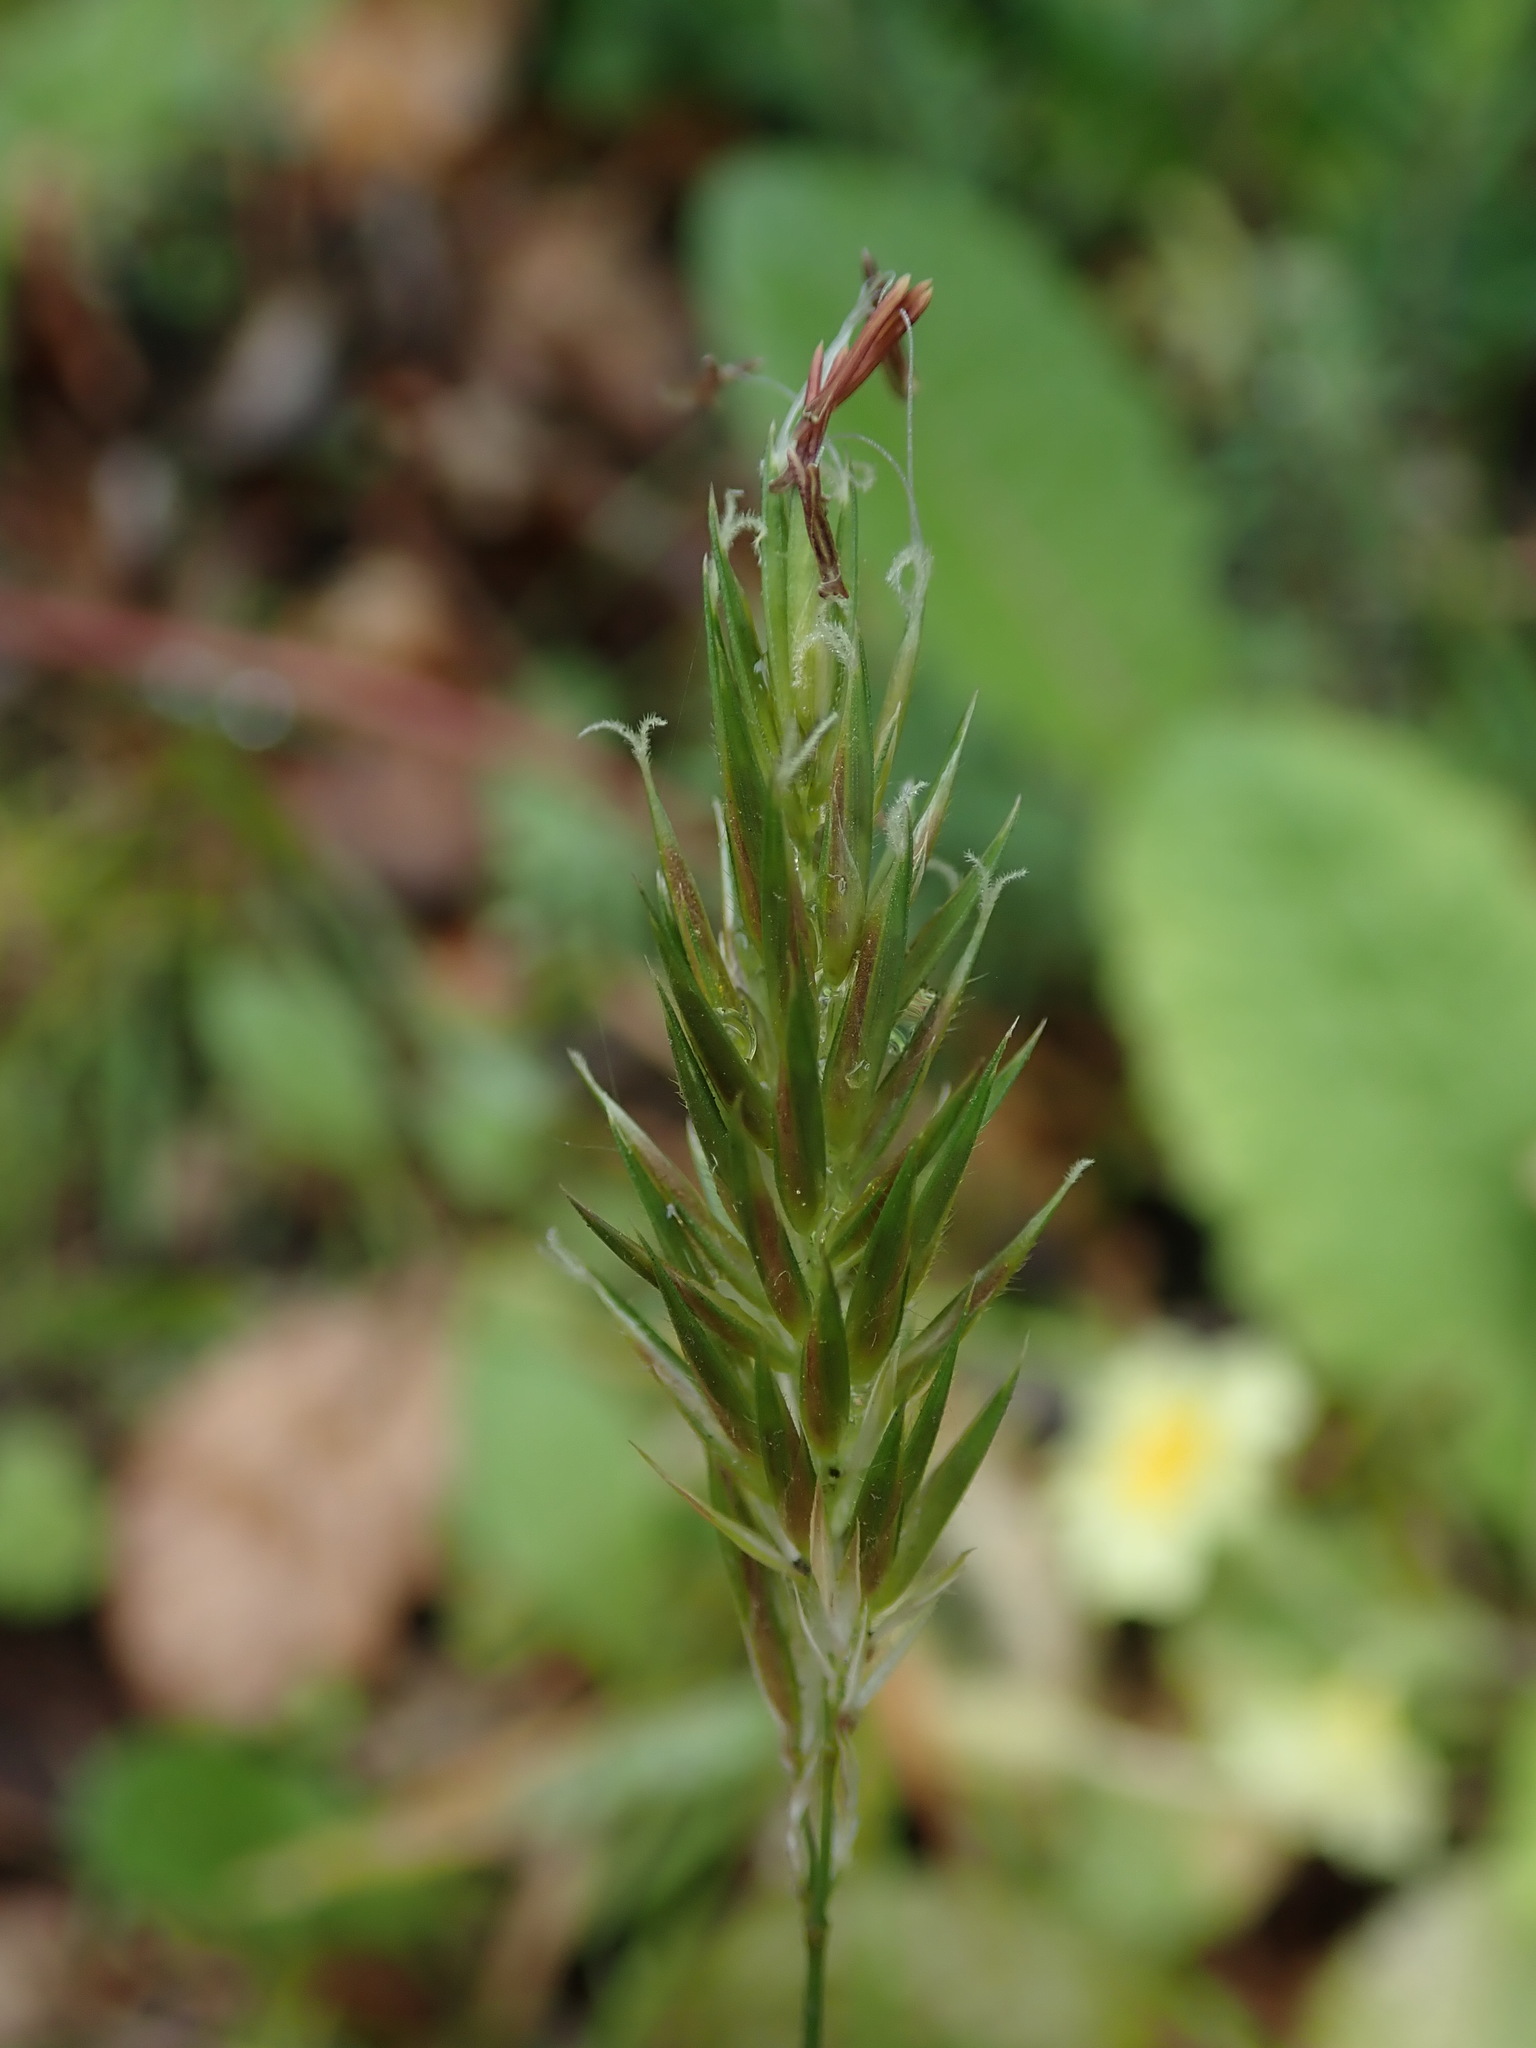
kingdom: Plantae
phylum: Tracheophyta
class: Liliopsida
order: Poales
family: Poaceae
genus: Anthoxanthum
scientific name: Anthoxanthum odoratum
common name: Sweet vernalgrass
